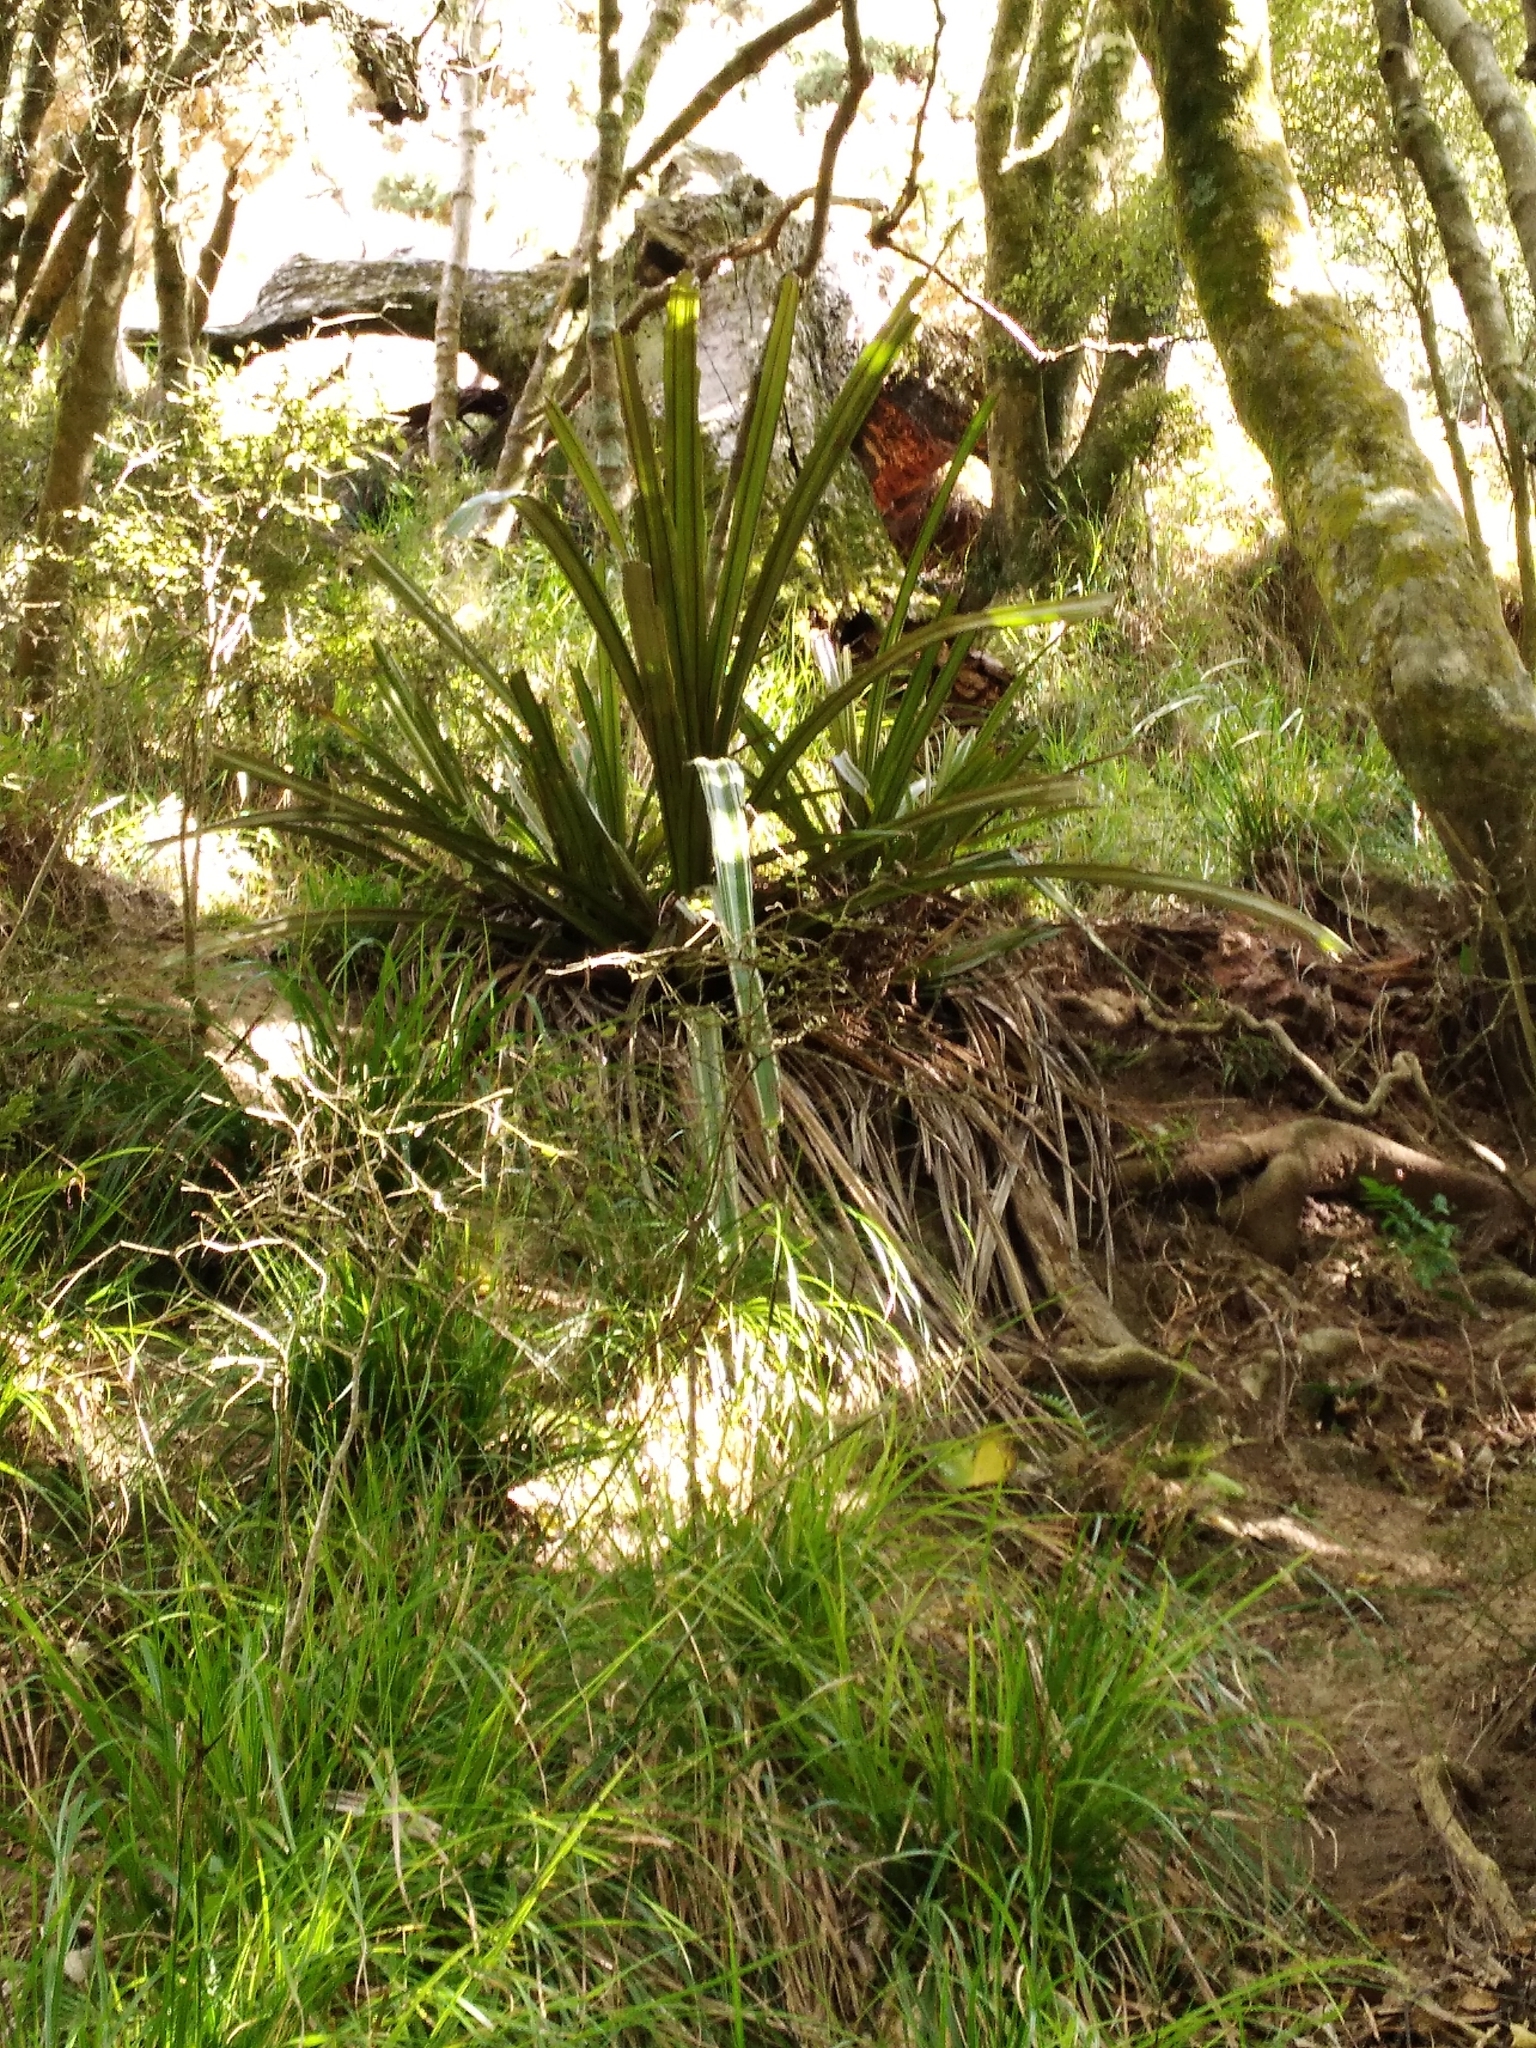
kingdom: Plantae
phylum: Tracheophyta
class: Liliopsida
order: Asparagales
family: Asteliaceae
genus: Astelia
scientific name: Astelia fragrans
